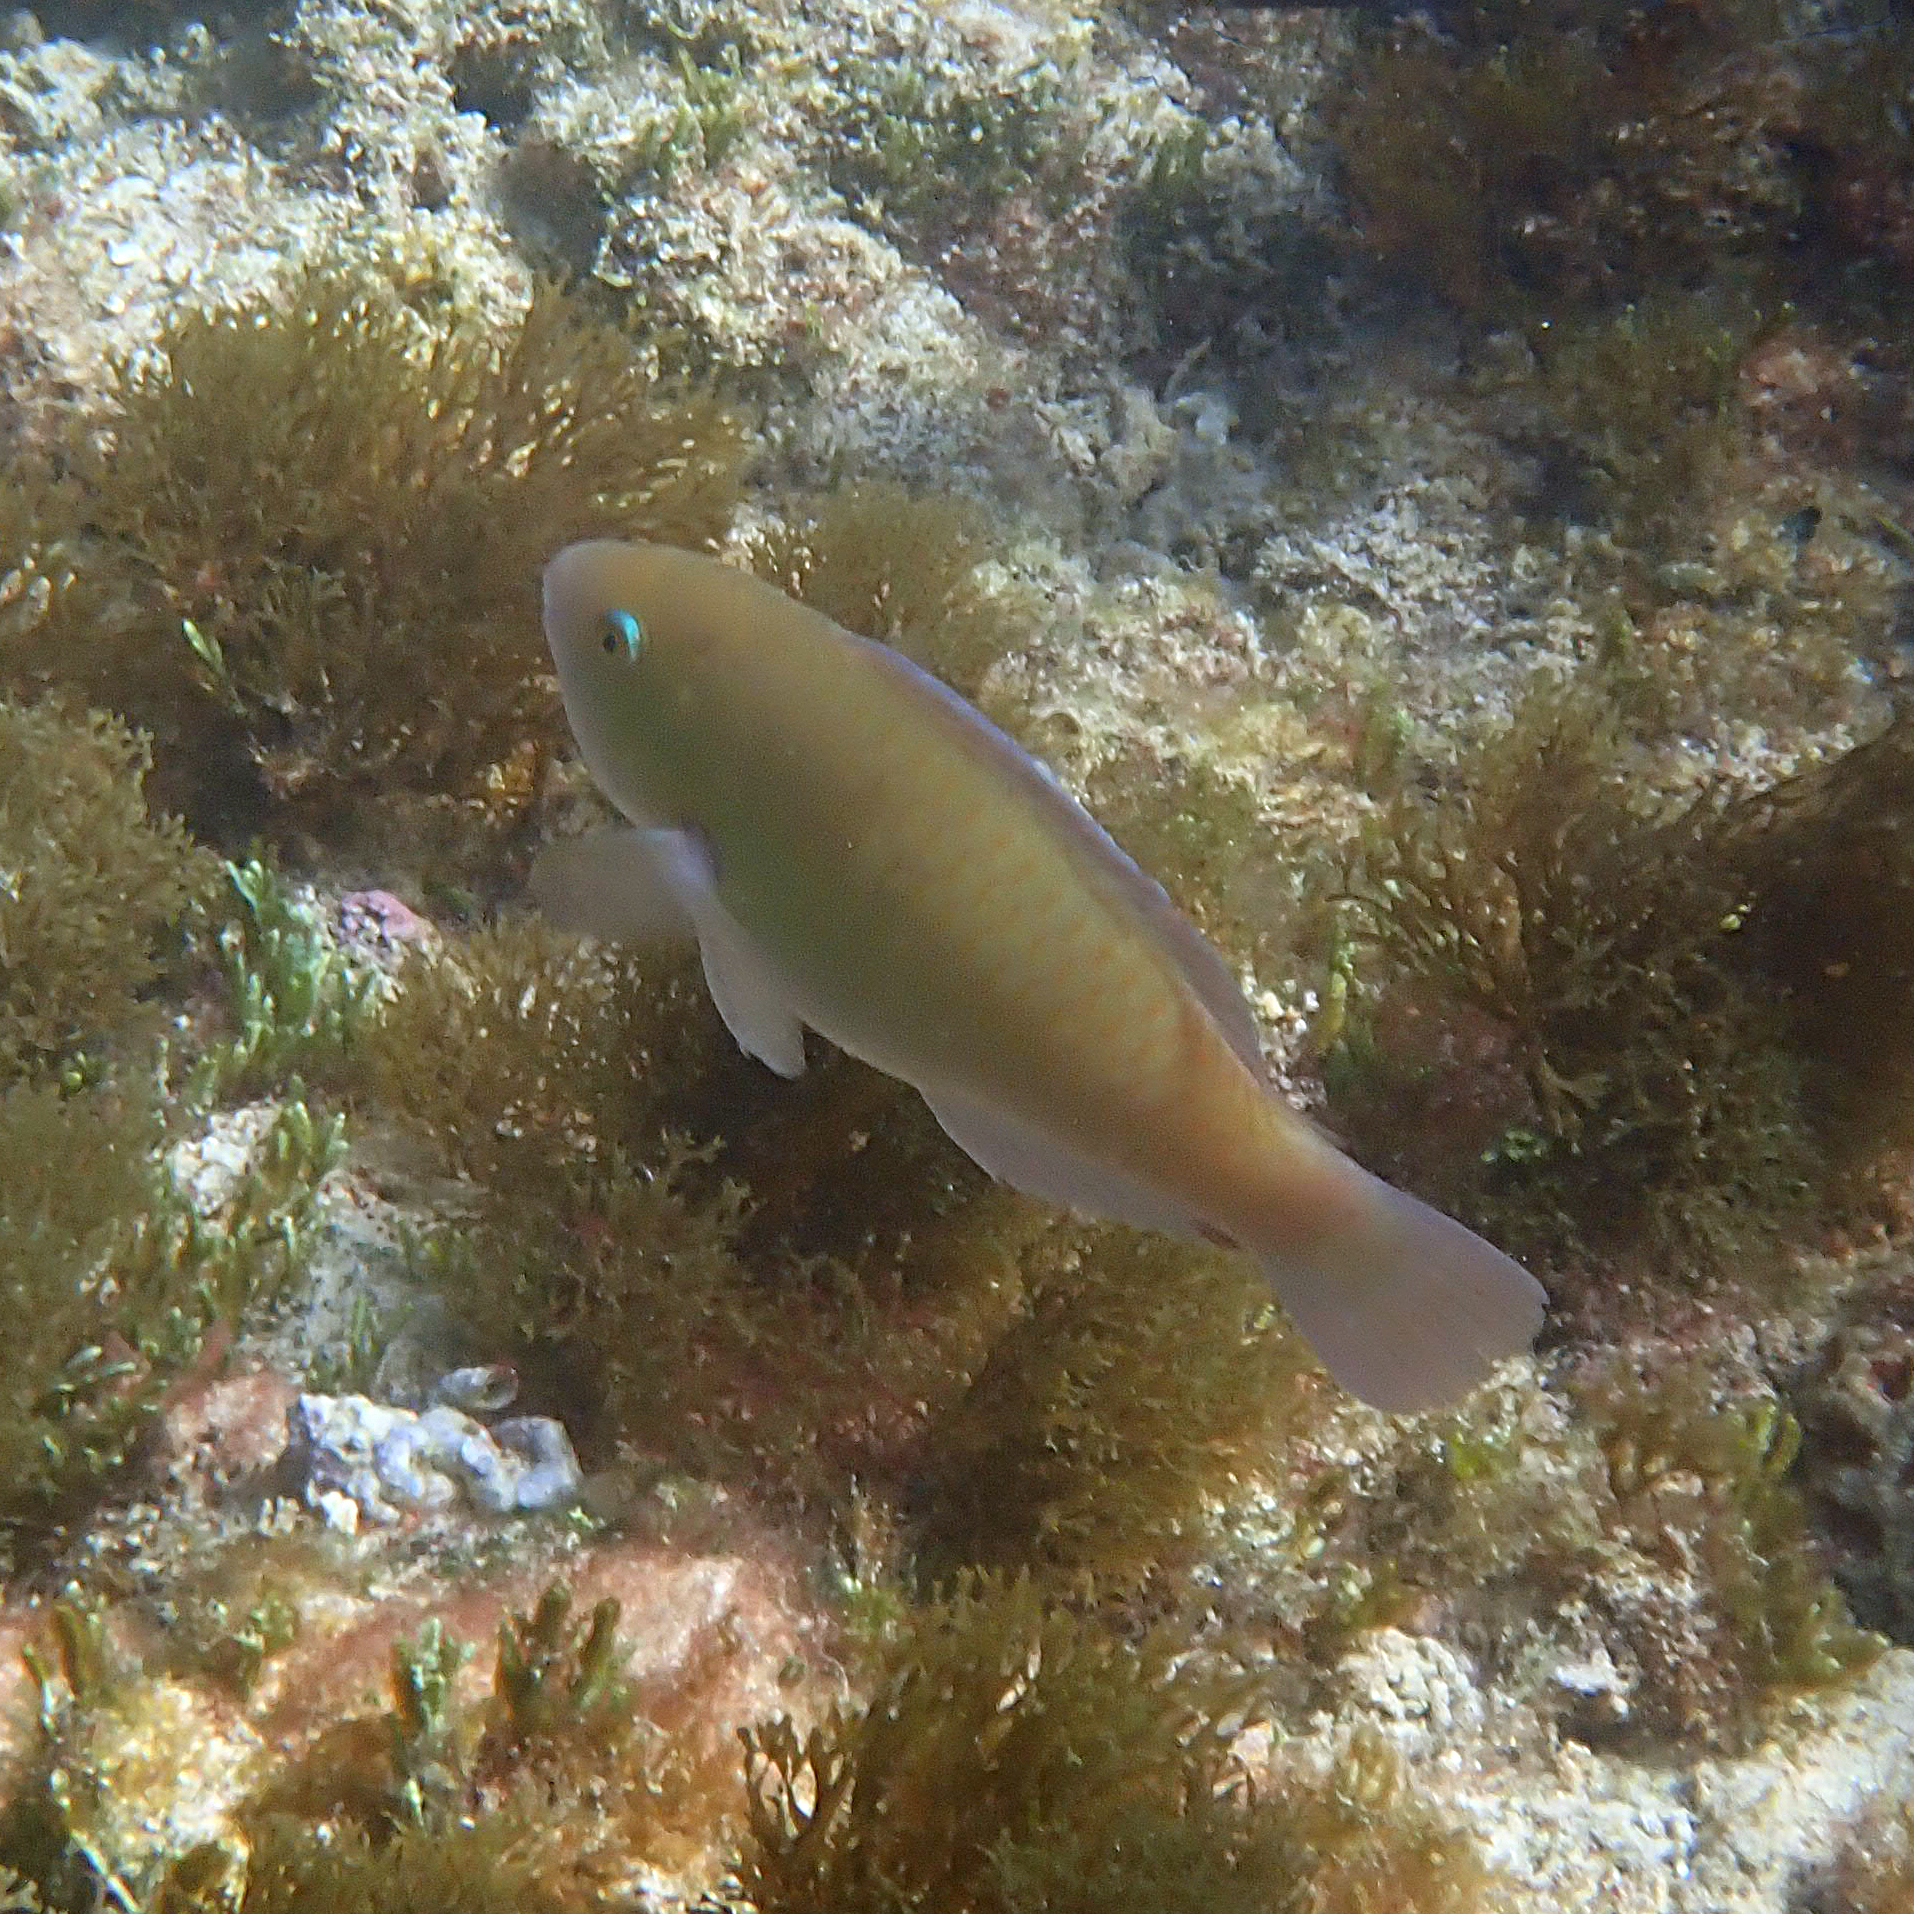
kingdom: Animalia
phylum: Chordata
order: Perciformes
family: Scaridae
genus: Scarus
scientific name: Scarus rivulatus
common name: Surf parrotfish
